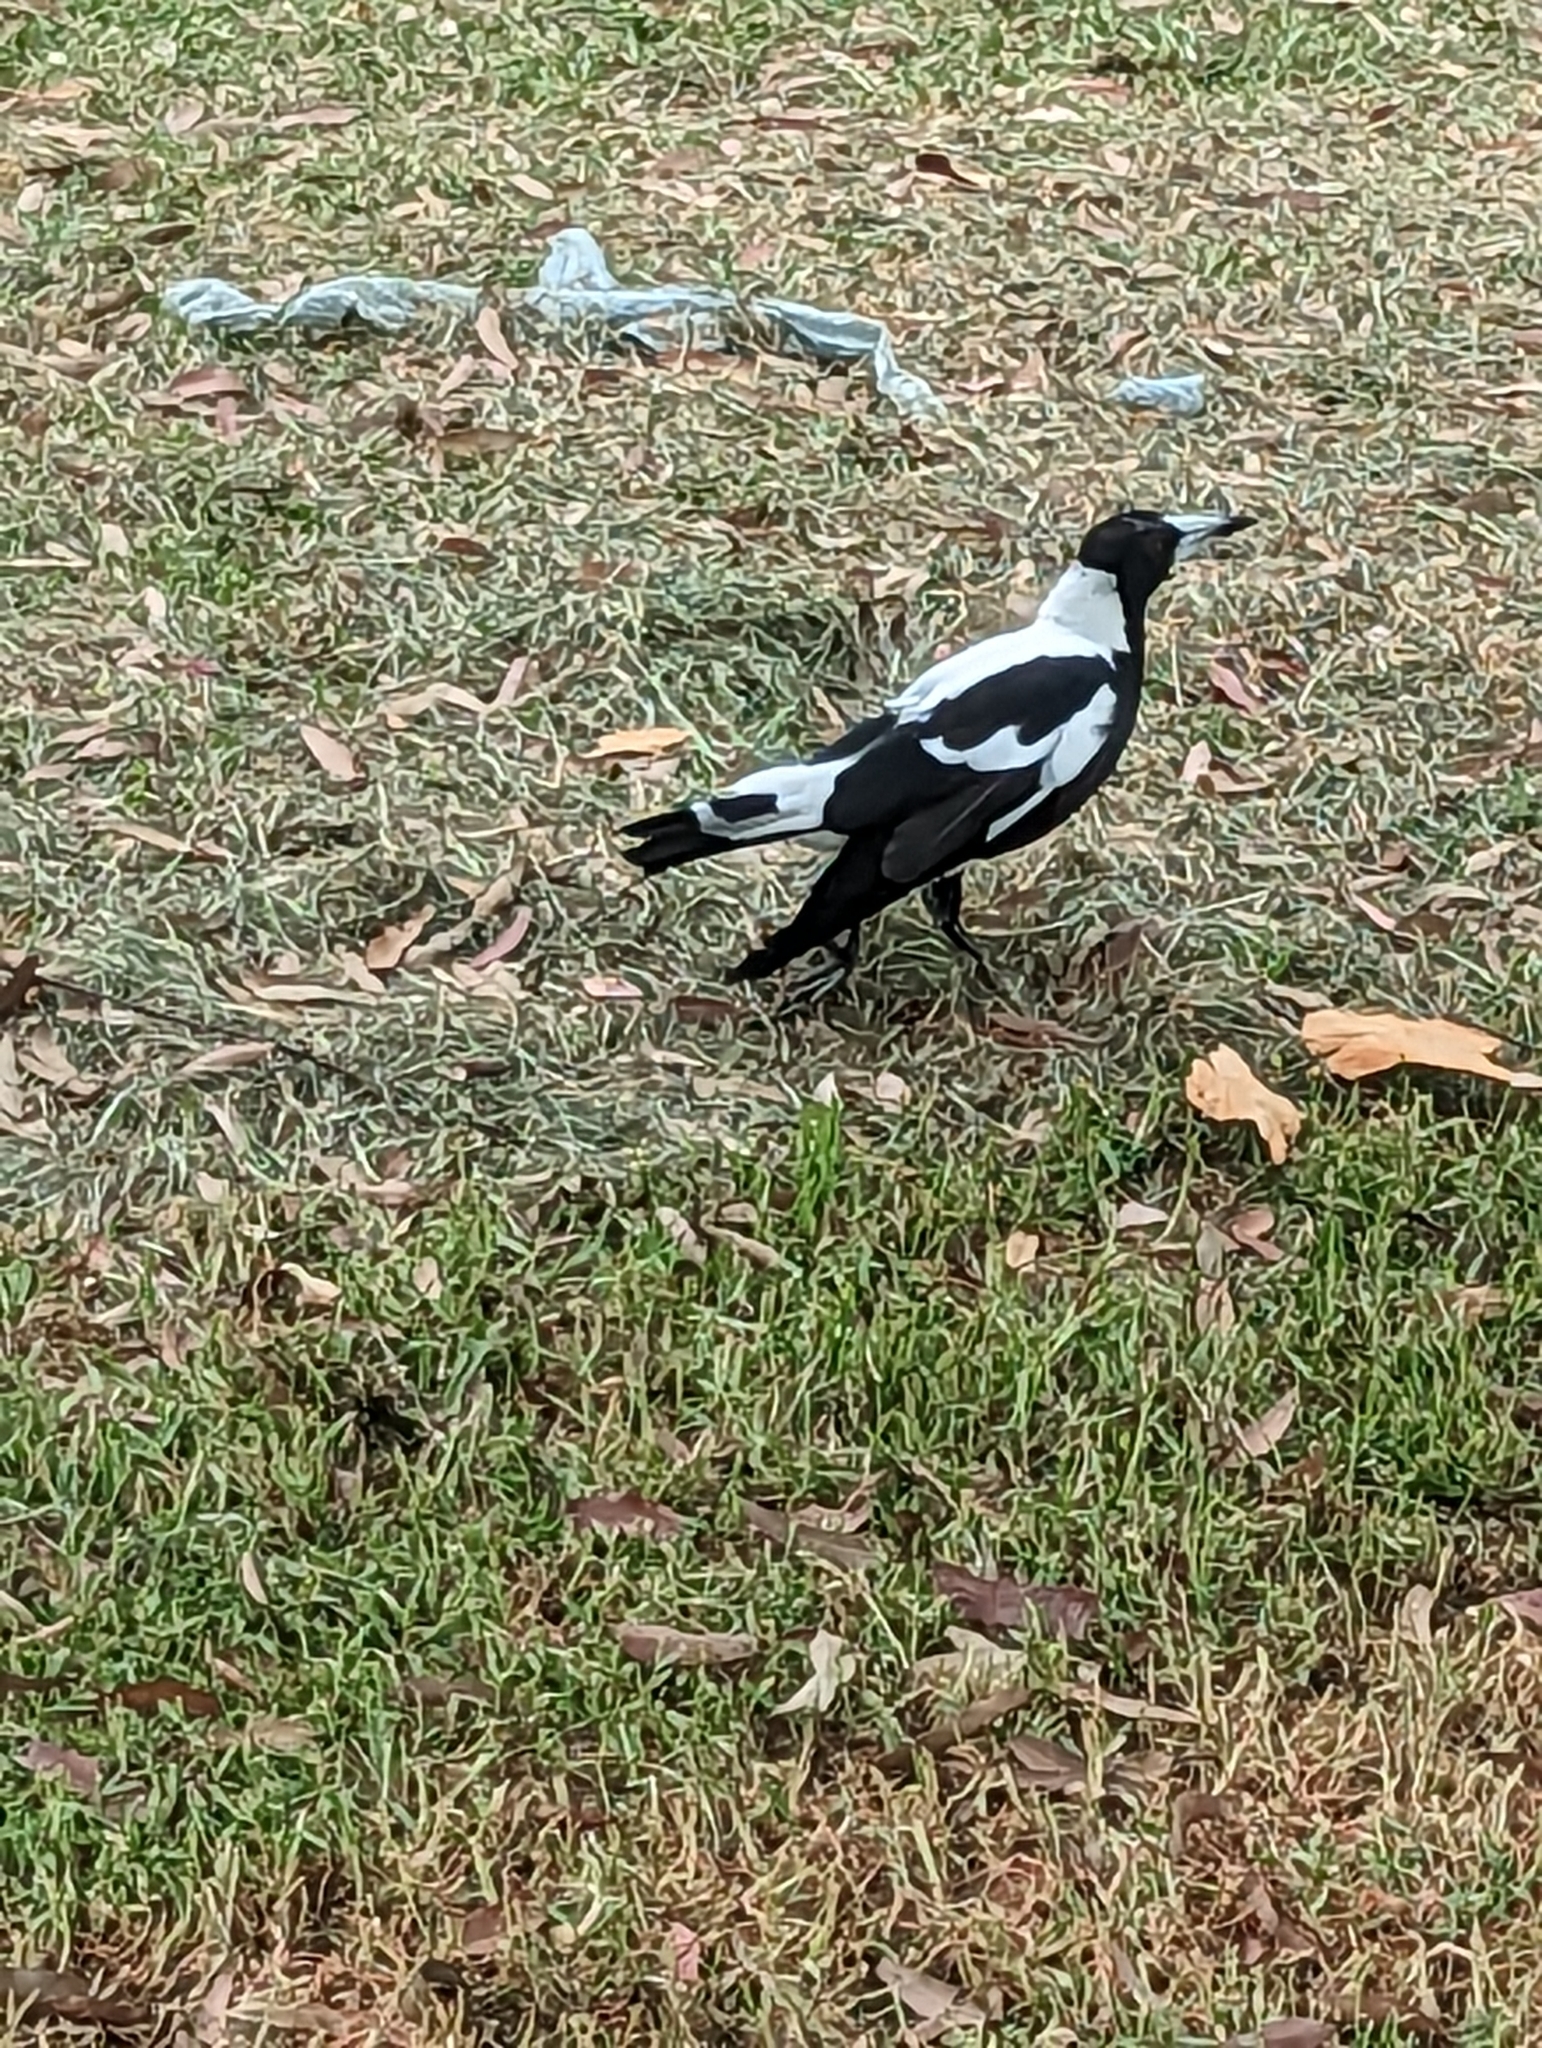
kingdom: Animalia
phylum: Chordata
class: Aves
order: Passeriformes
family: Cracticidae
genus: Gymnorhina
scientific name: Gymnorhina tibicen
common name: Australian magpie
